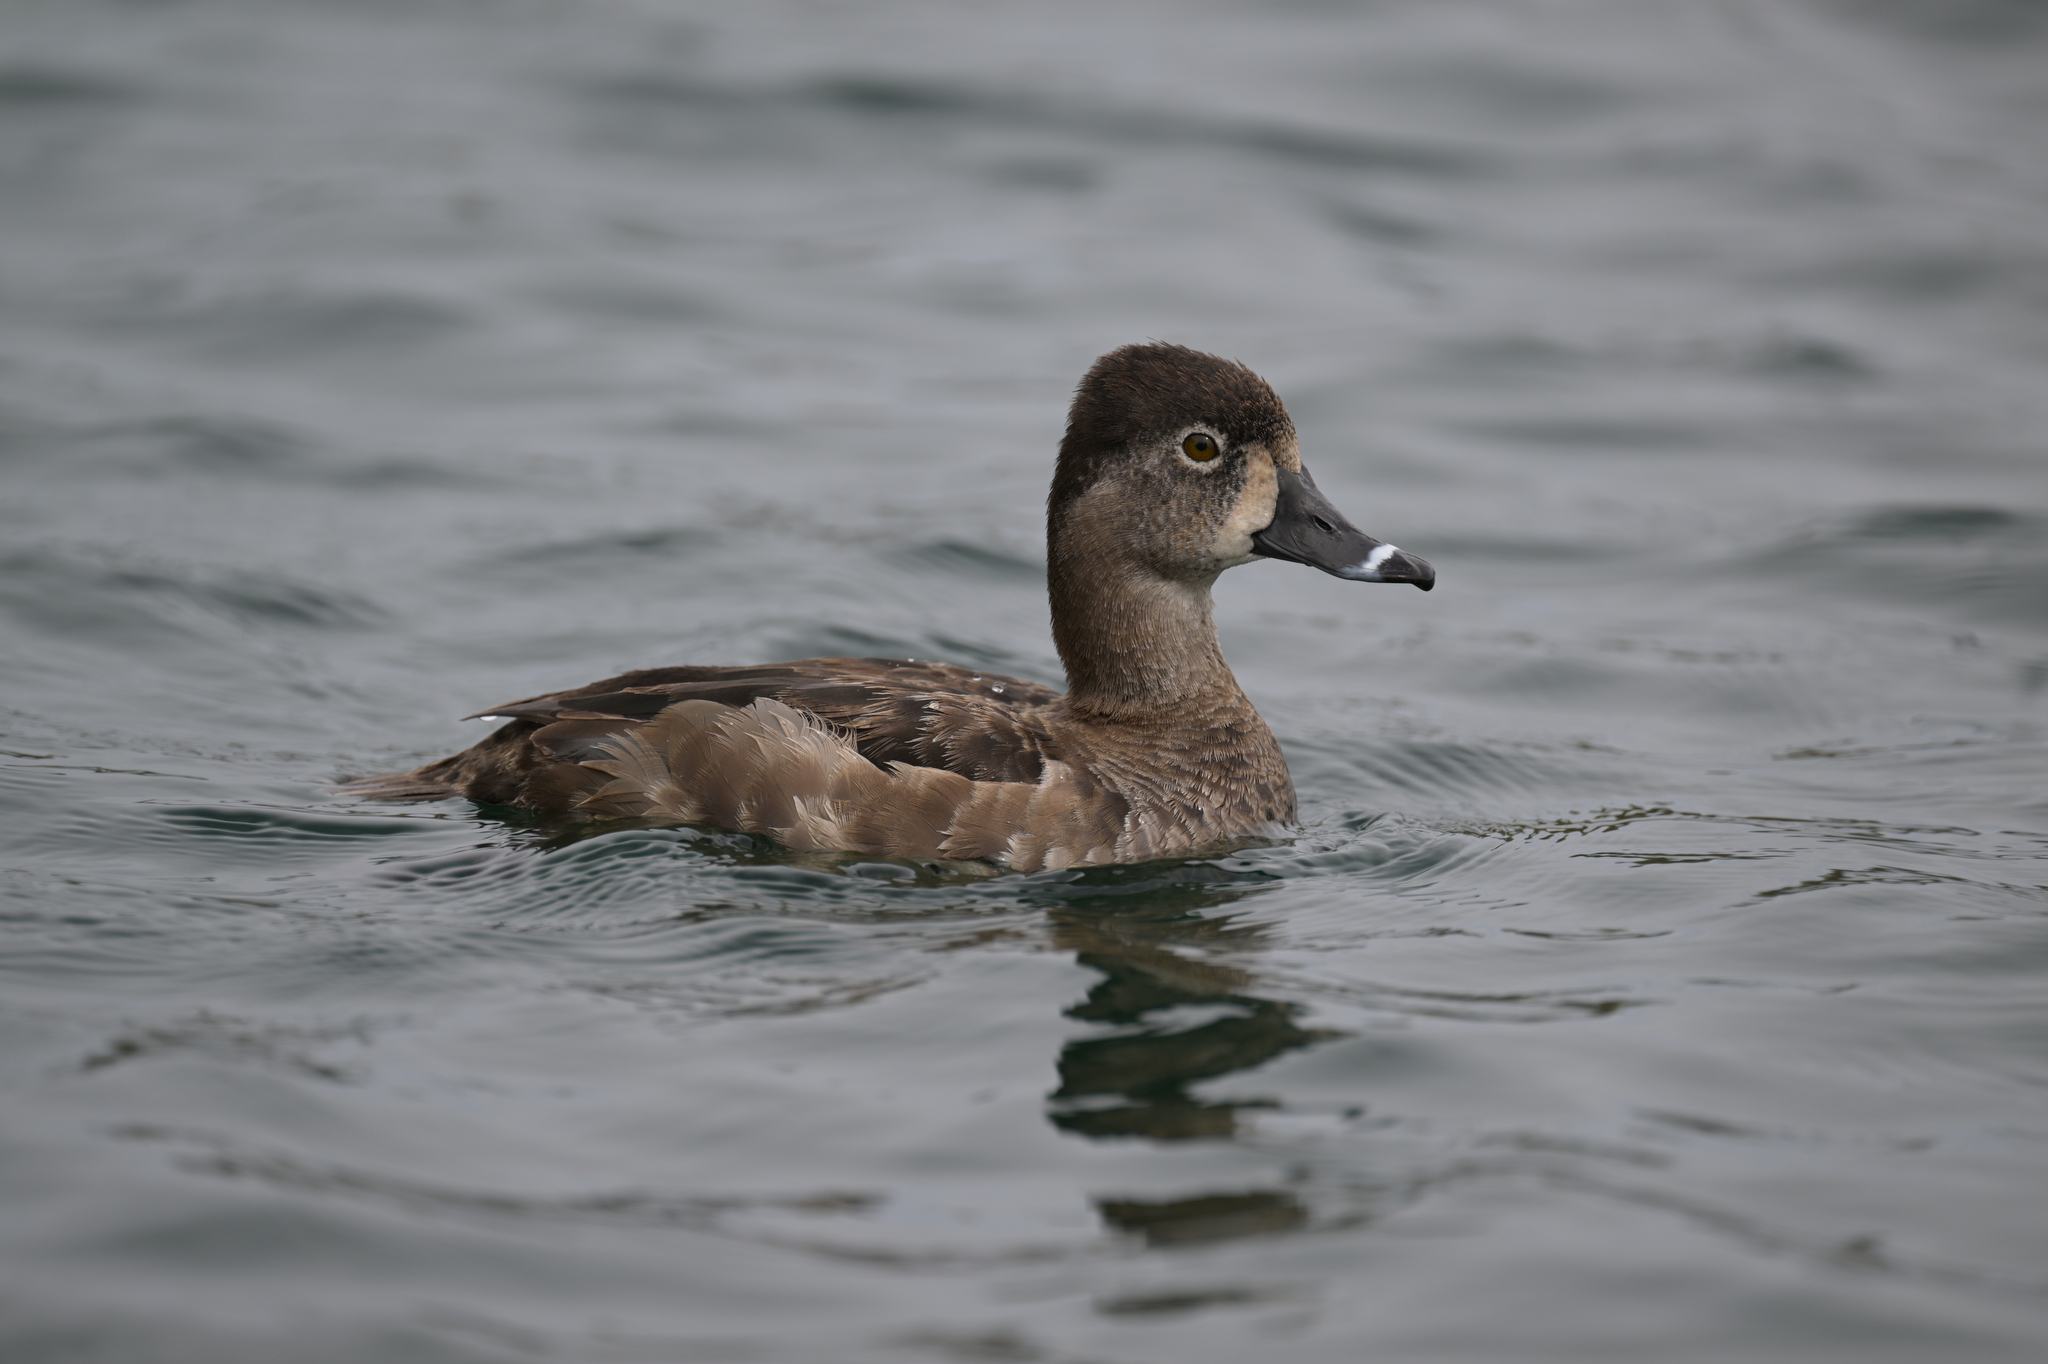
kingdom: Animalia
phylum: Chordata
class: Aves
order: Anseriformes
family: Anatidae
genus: Aythya
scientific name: Aythya collaris
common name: Ring-necked duck
